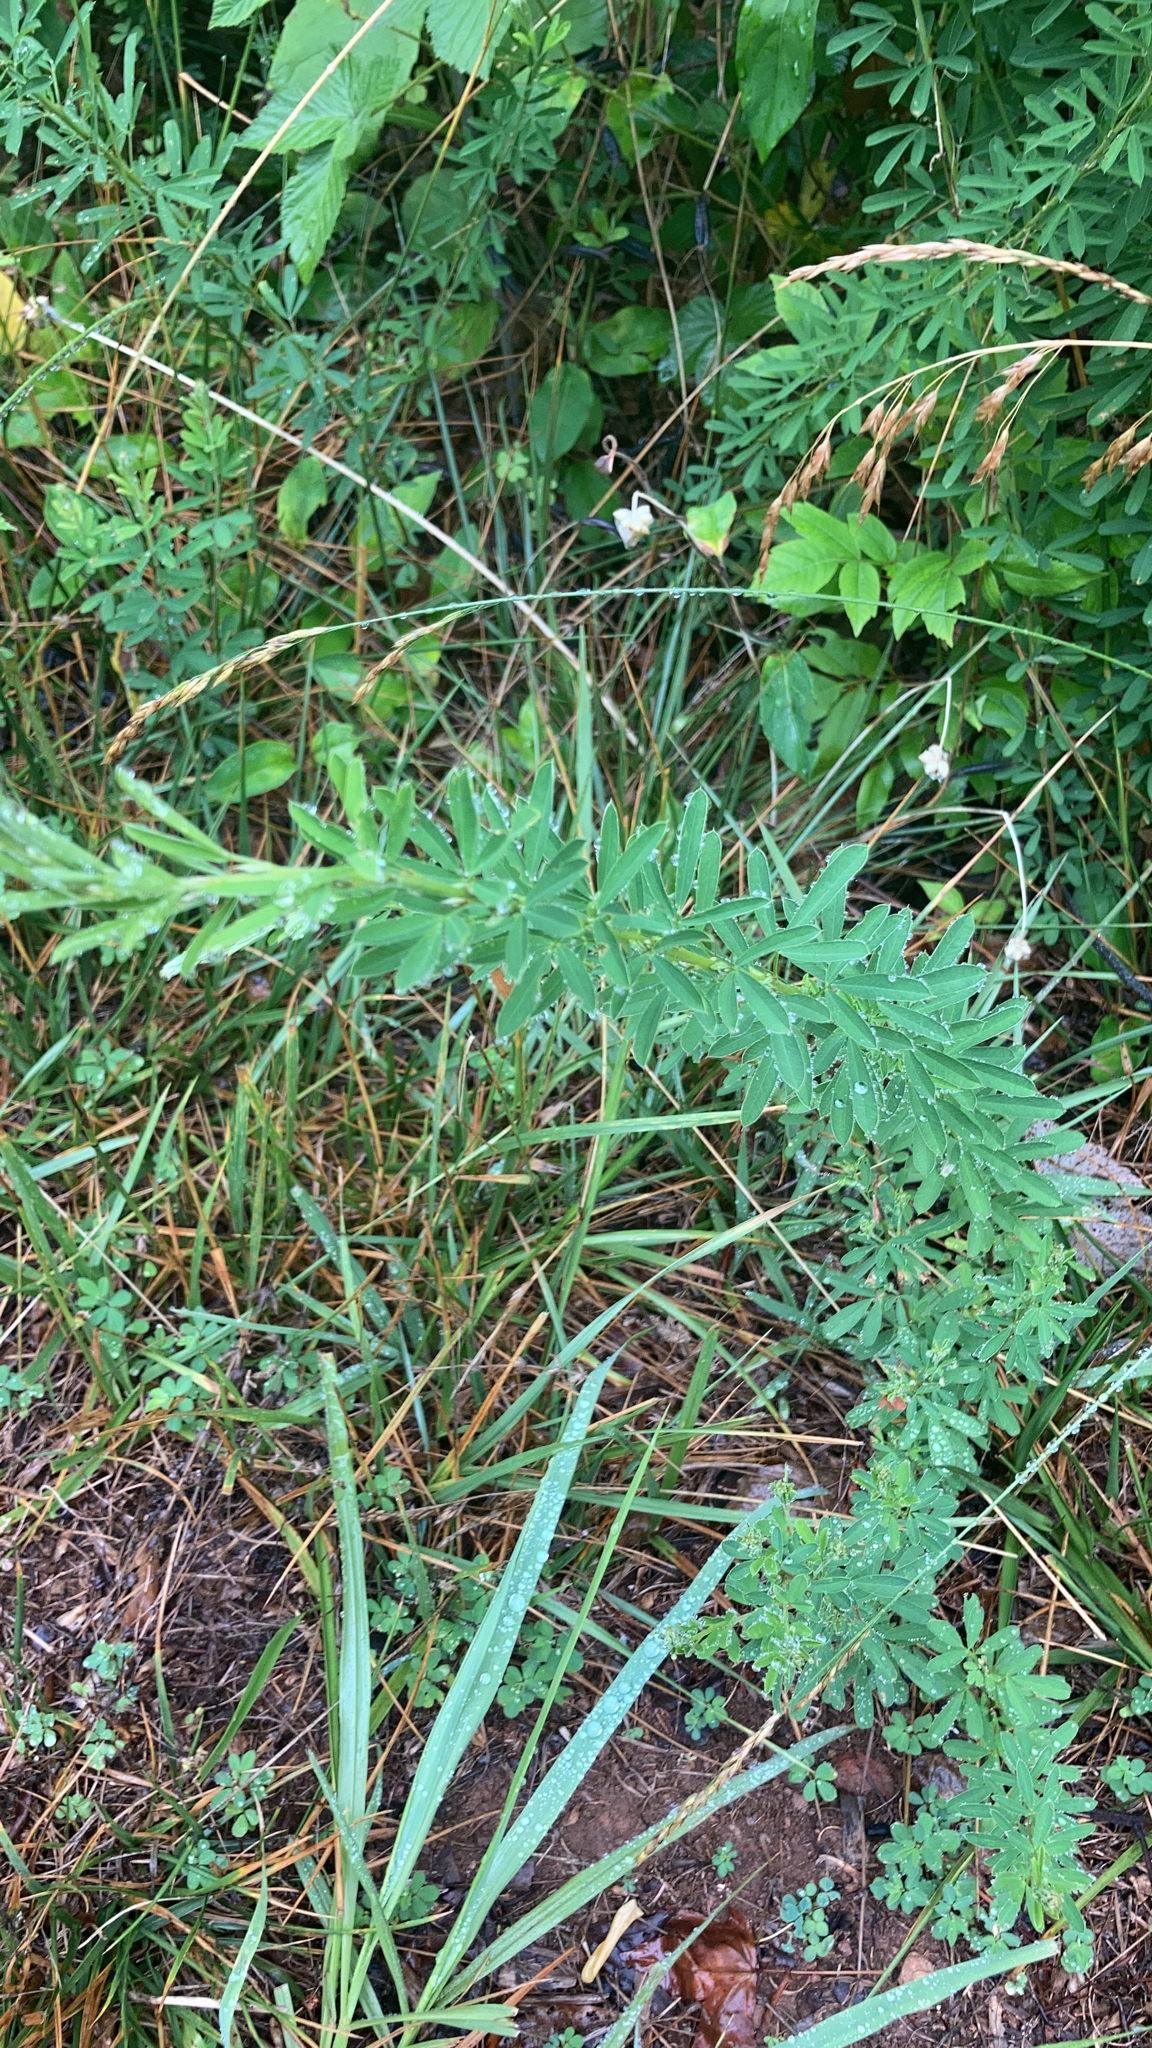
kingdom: Plantae
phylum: Tracheophyta
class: Magnoliopsida
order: Fabales
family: Fabaceae
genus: Lespedeza
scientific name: Lespedeza cuneata
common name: Chinese bush-clover
